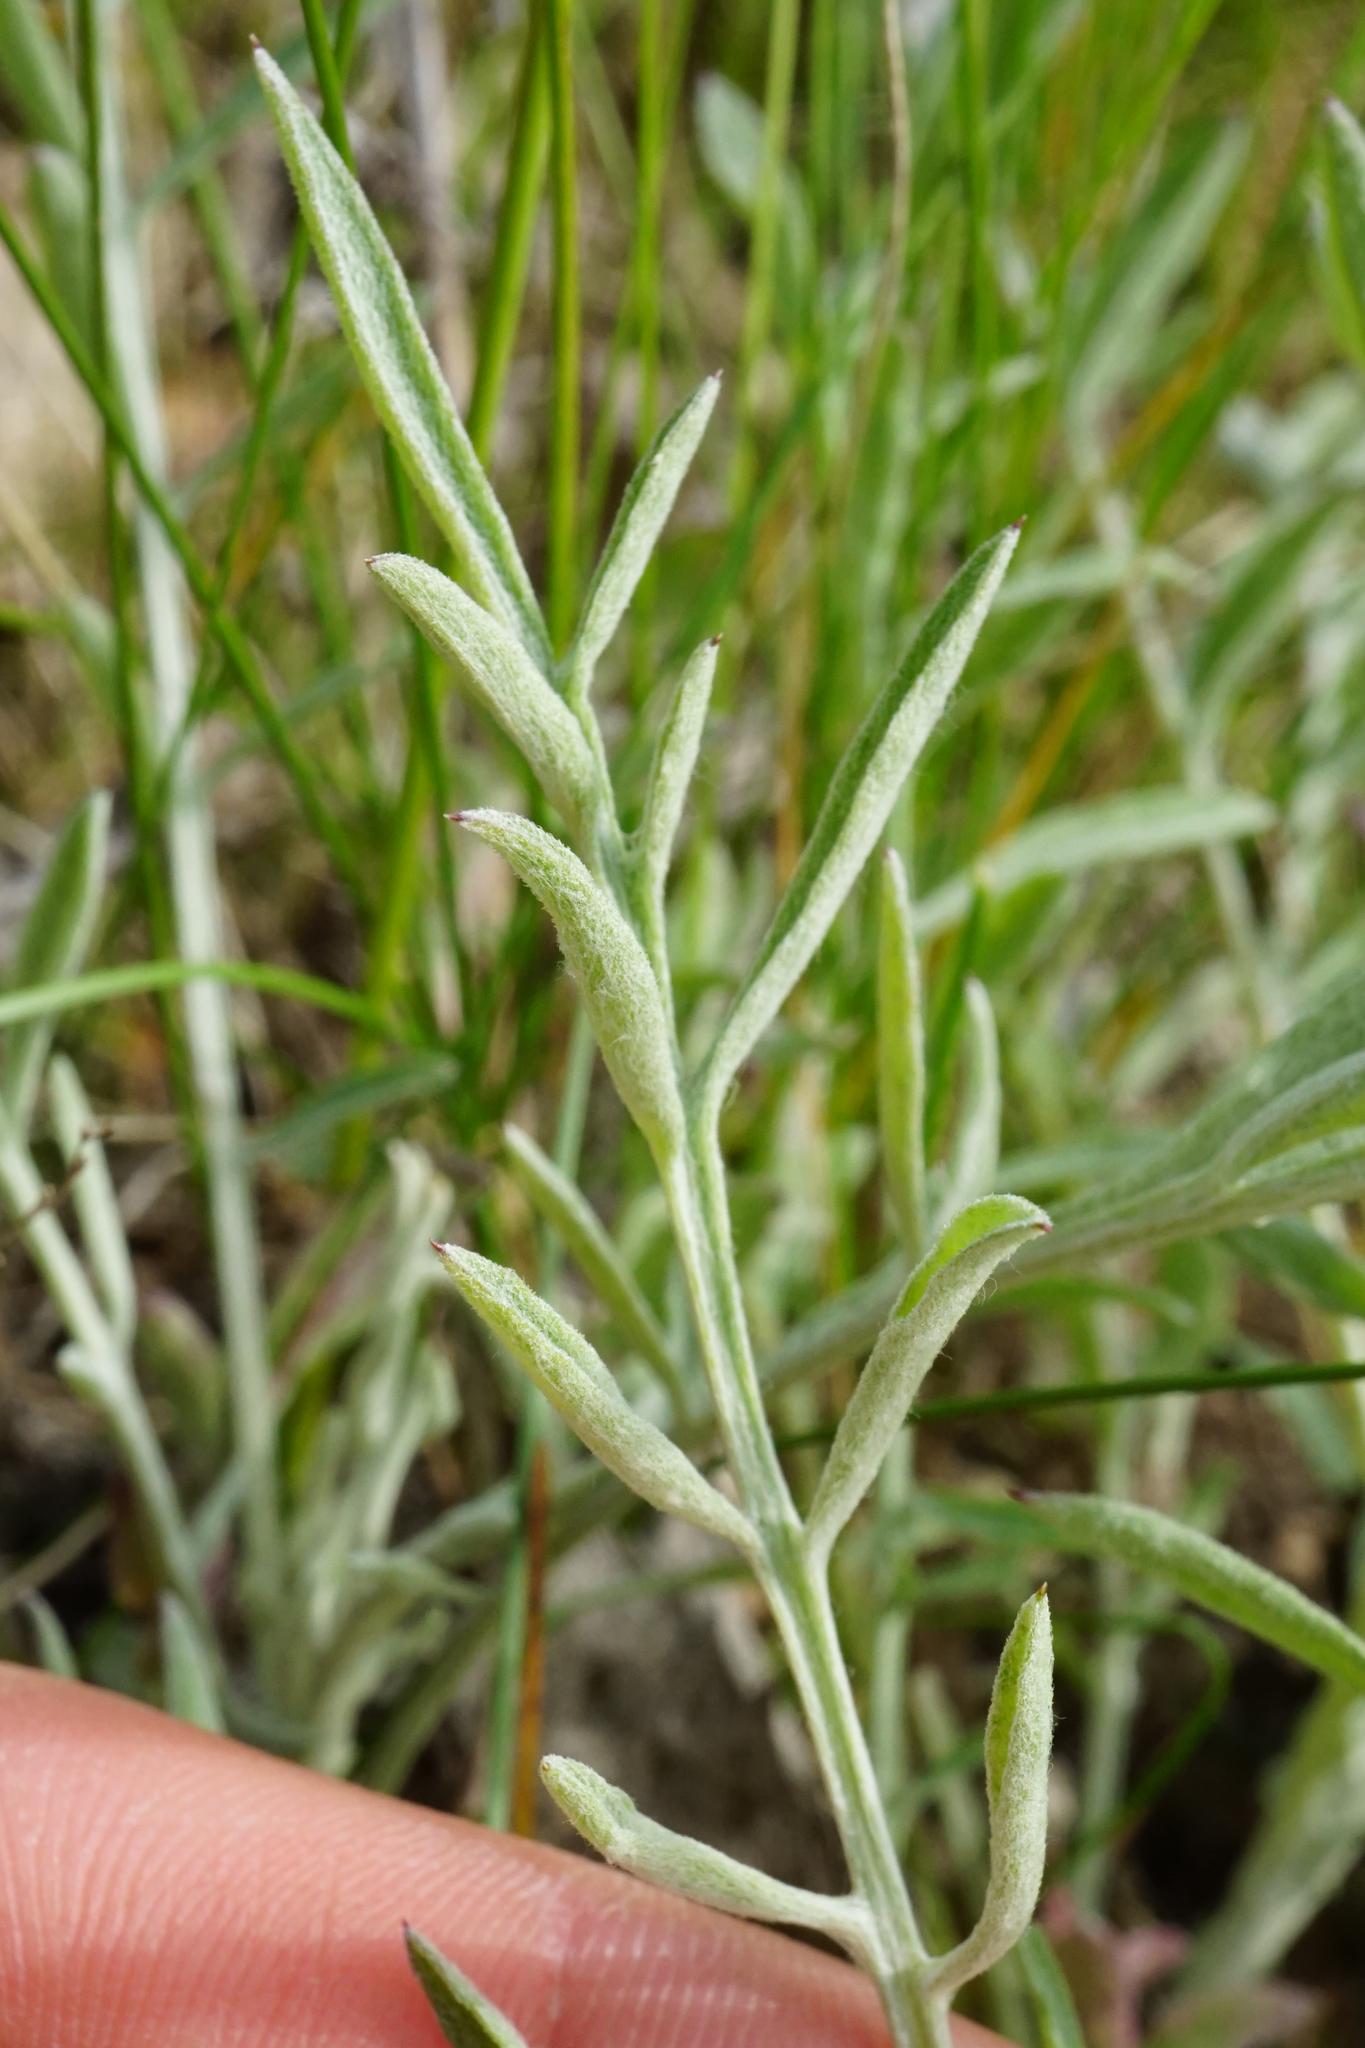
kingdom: Plantae
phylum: Tracheophyta
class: Magnoliopsida
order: Asterales
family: Asteraceae
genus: Centaurea
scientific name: Centaurea stoebe
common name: Spotted knapweed
